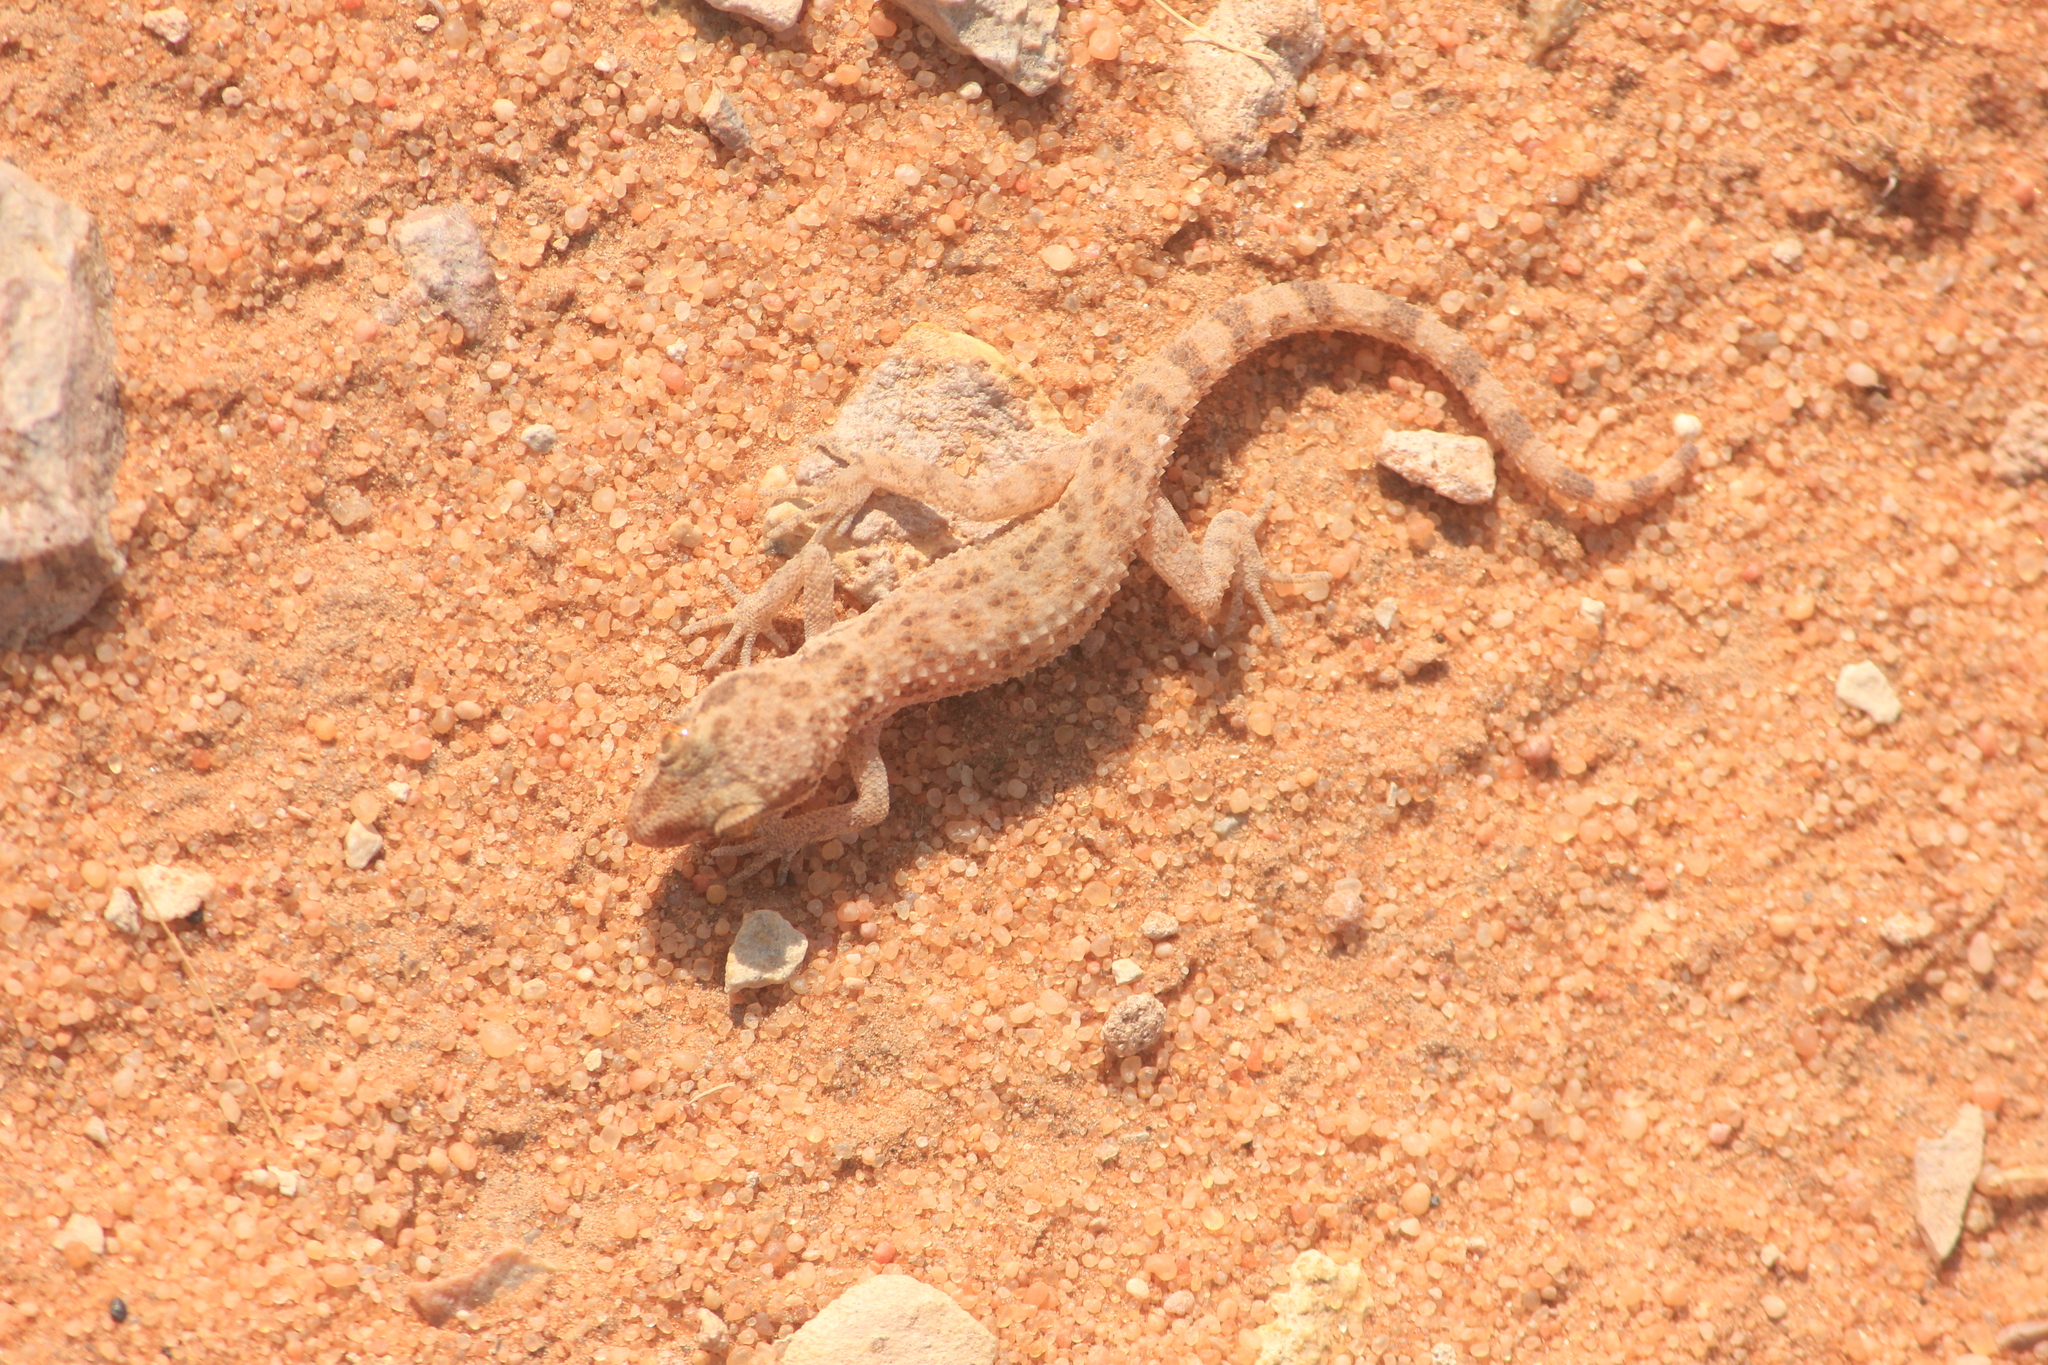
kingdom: Animalia
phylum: Chordata
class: Squamata
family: Gekkonidae
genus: Bunopus
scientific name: Bunopus tuberculatus
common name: Southern tuberculated gecko
